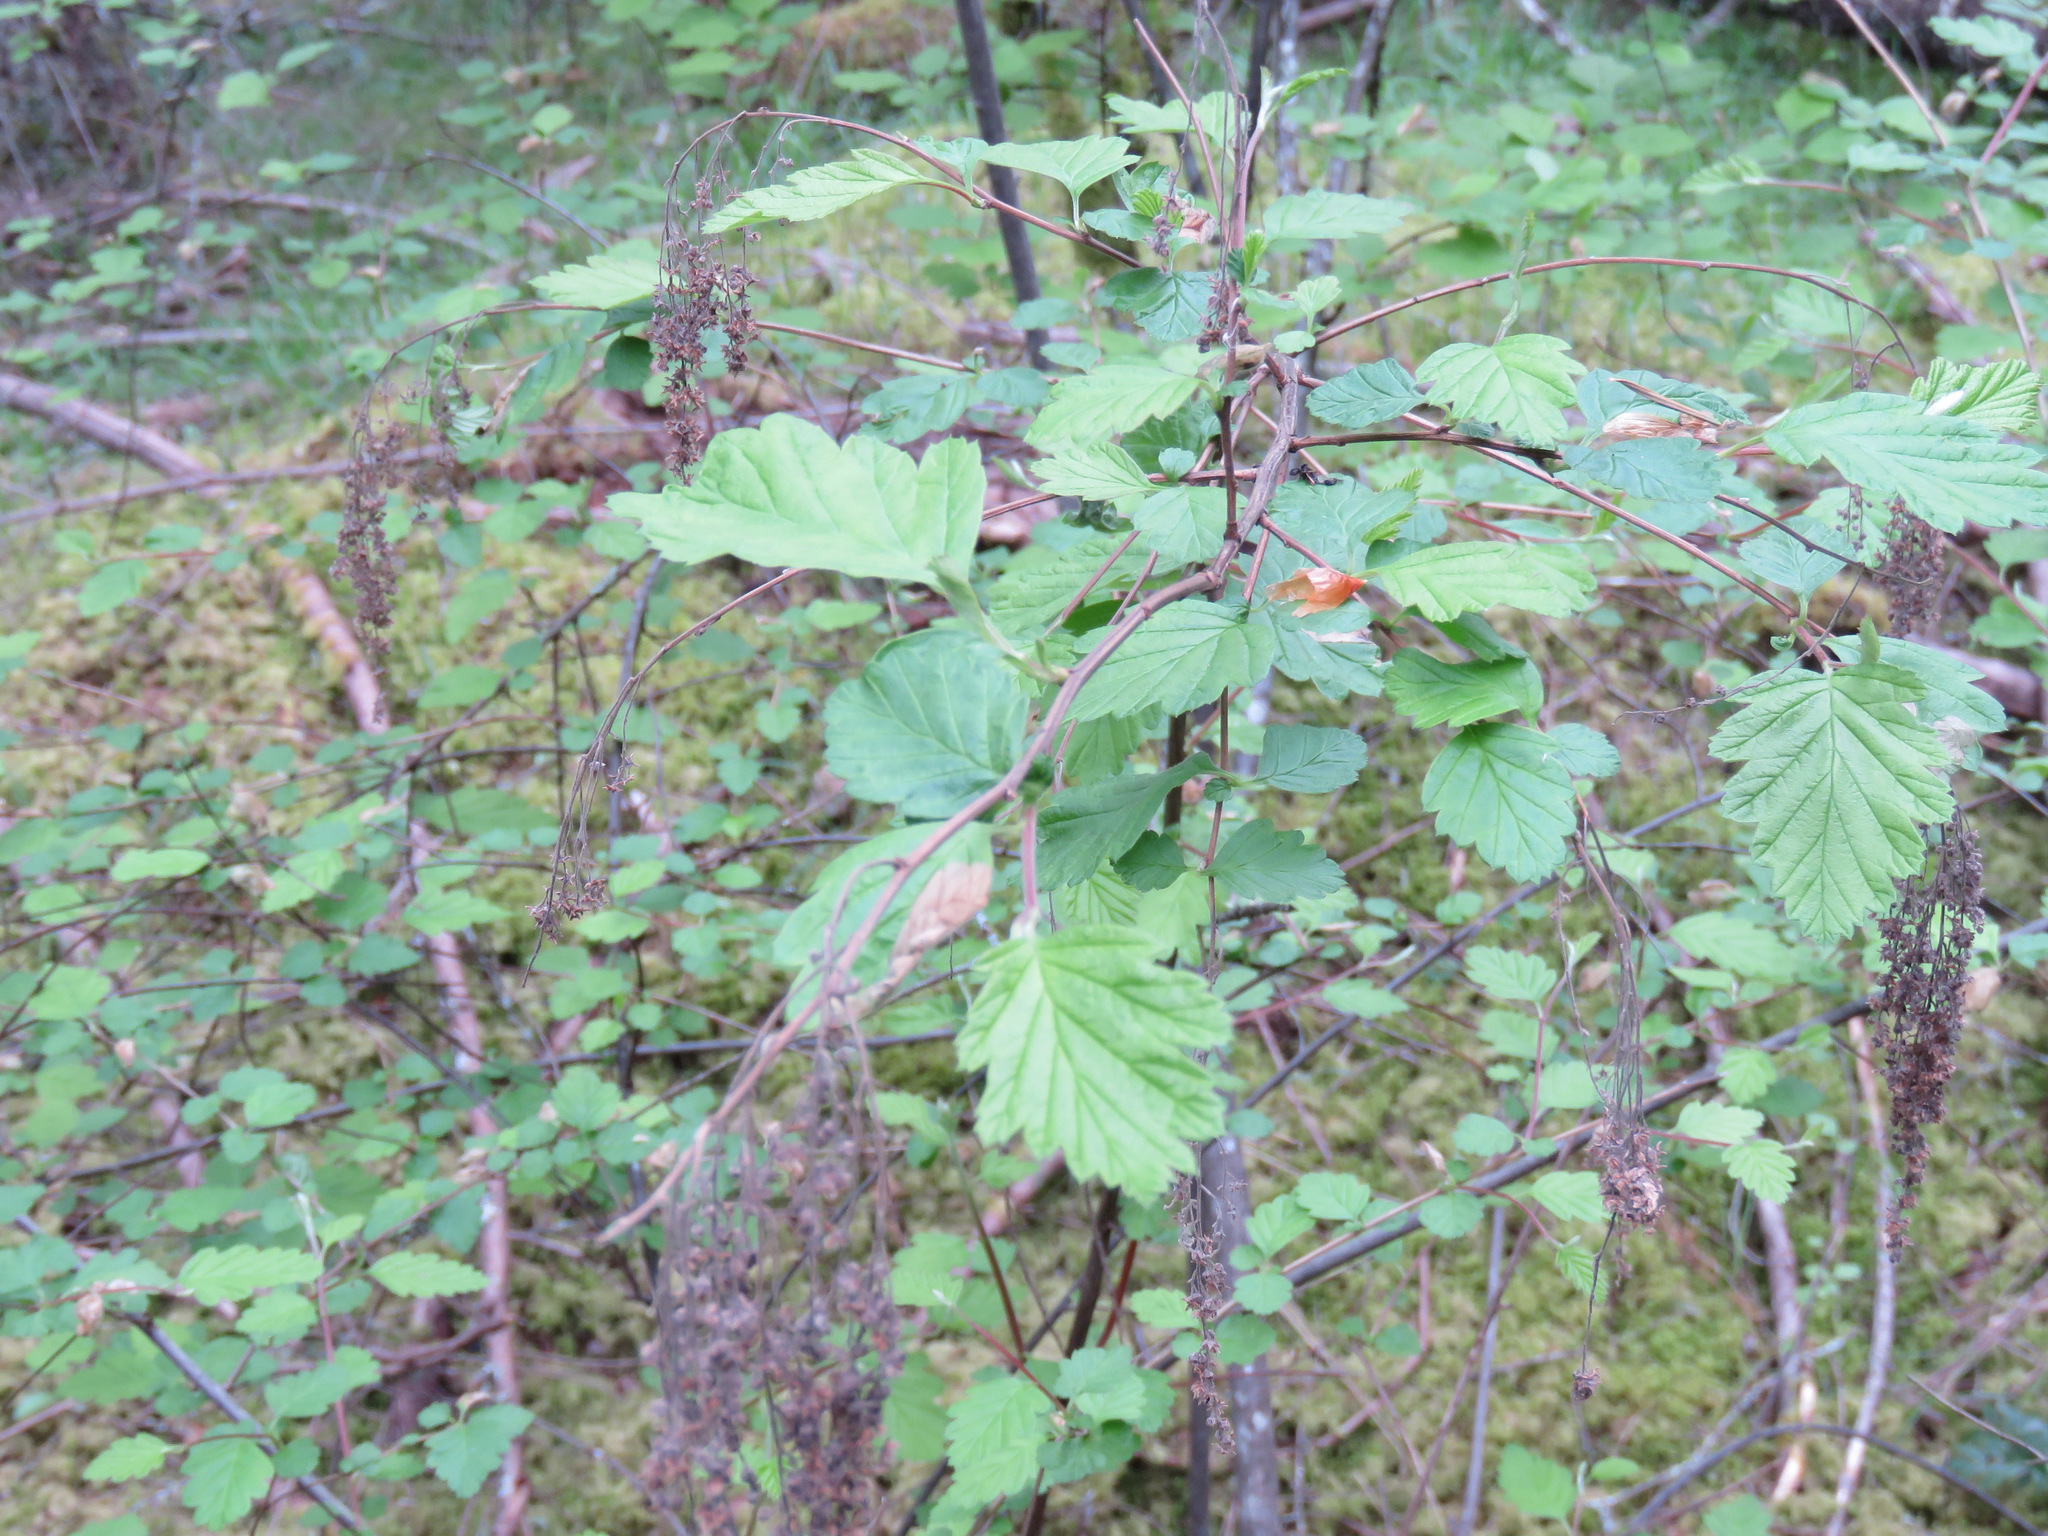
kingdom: Plantae
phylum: Tracheophyta
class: Magnoliopsida
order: Rosales
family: Rosaceae
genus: Holodiscus
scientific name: Holodiscus discolor
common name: Oceanspray
